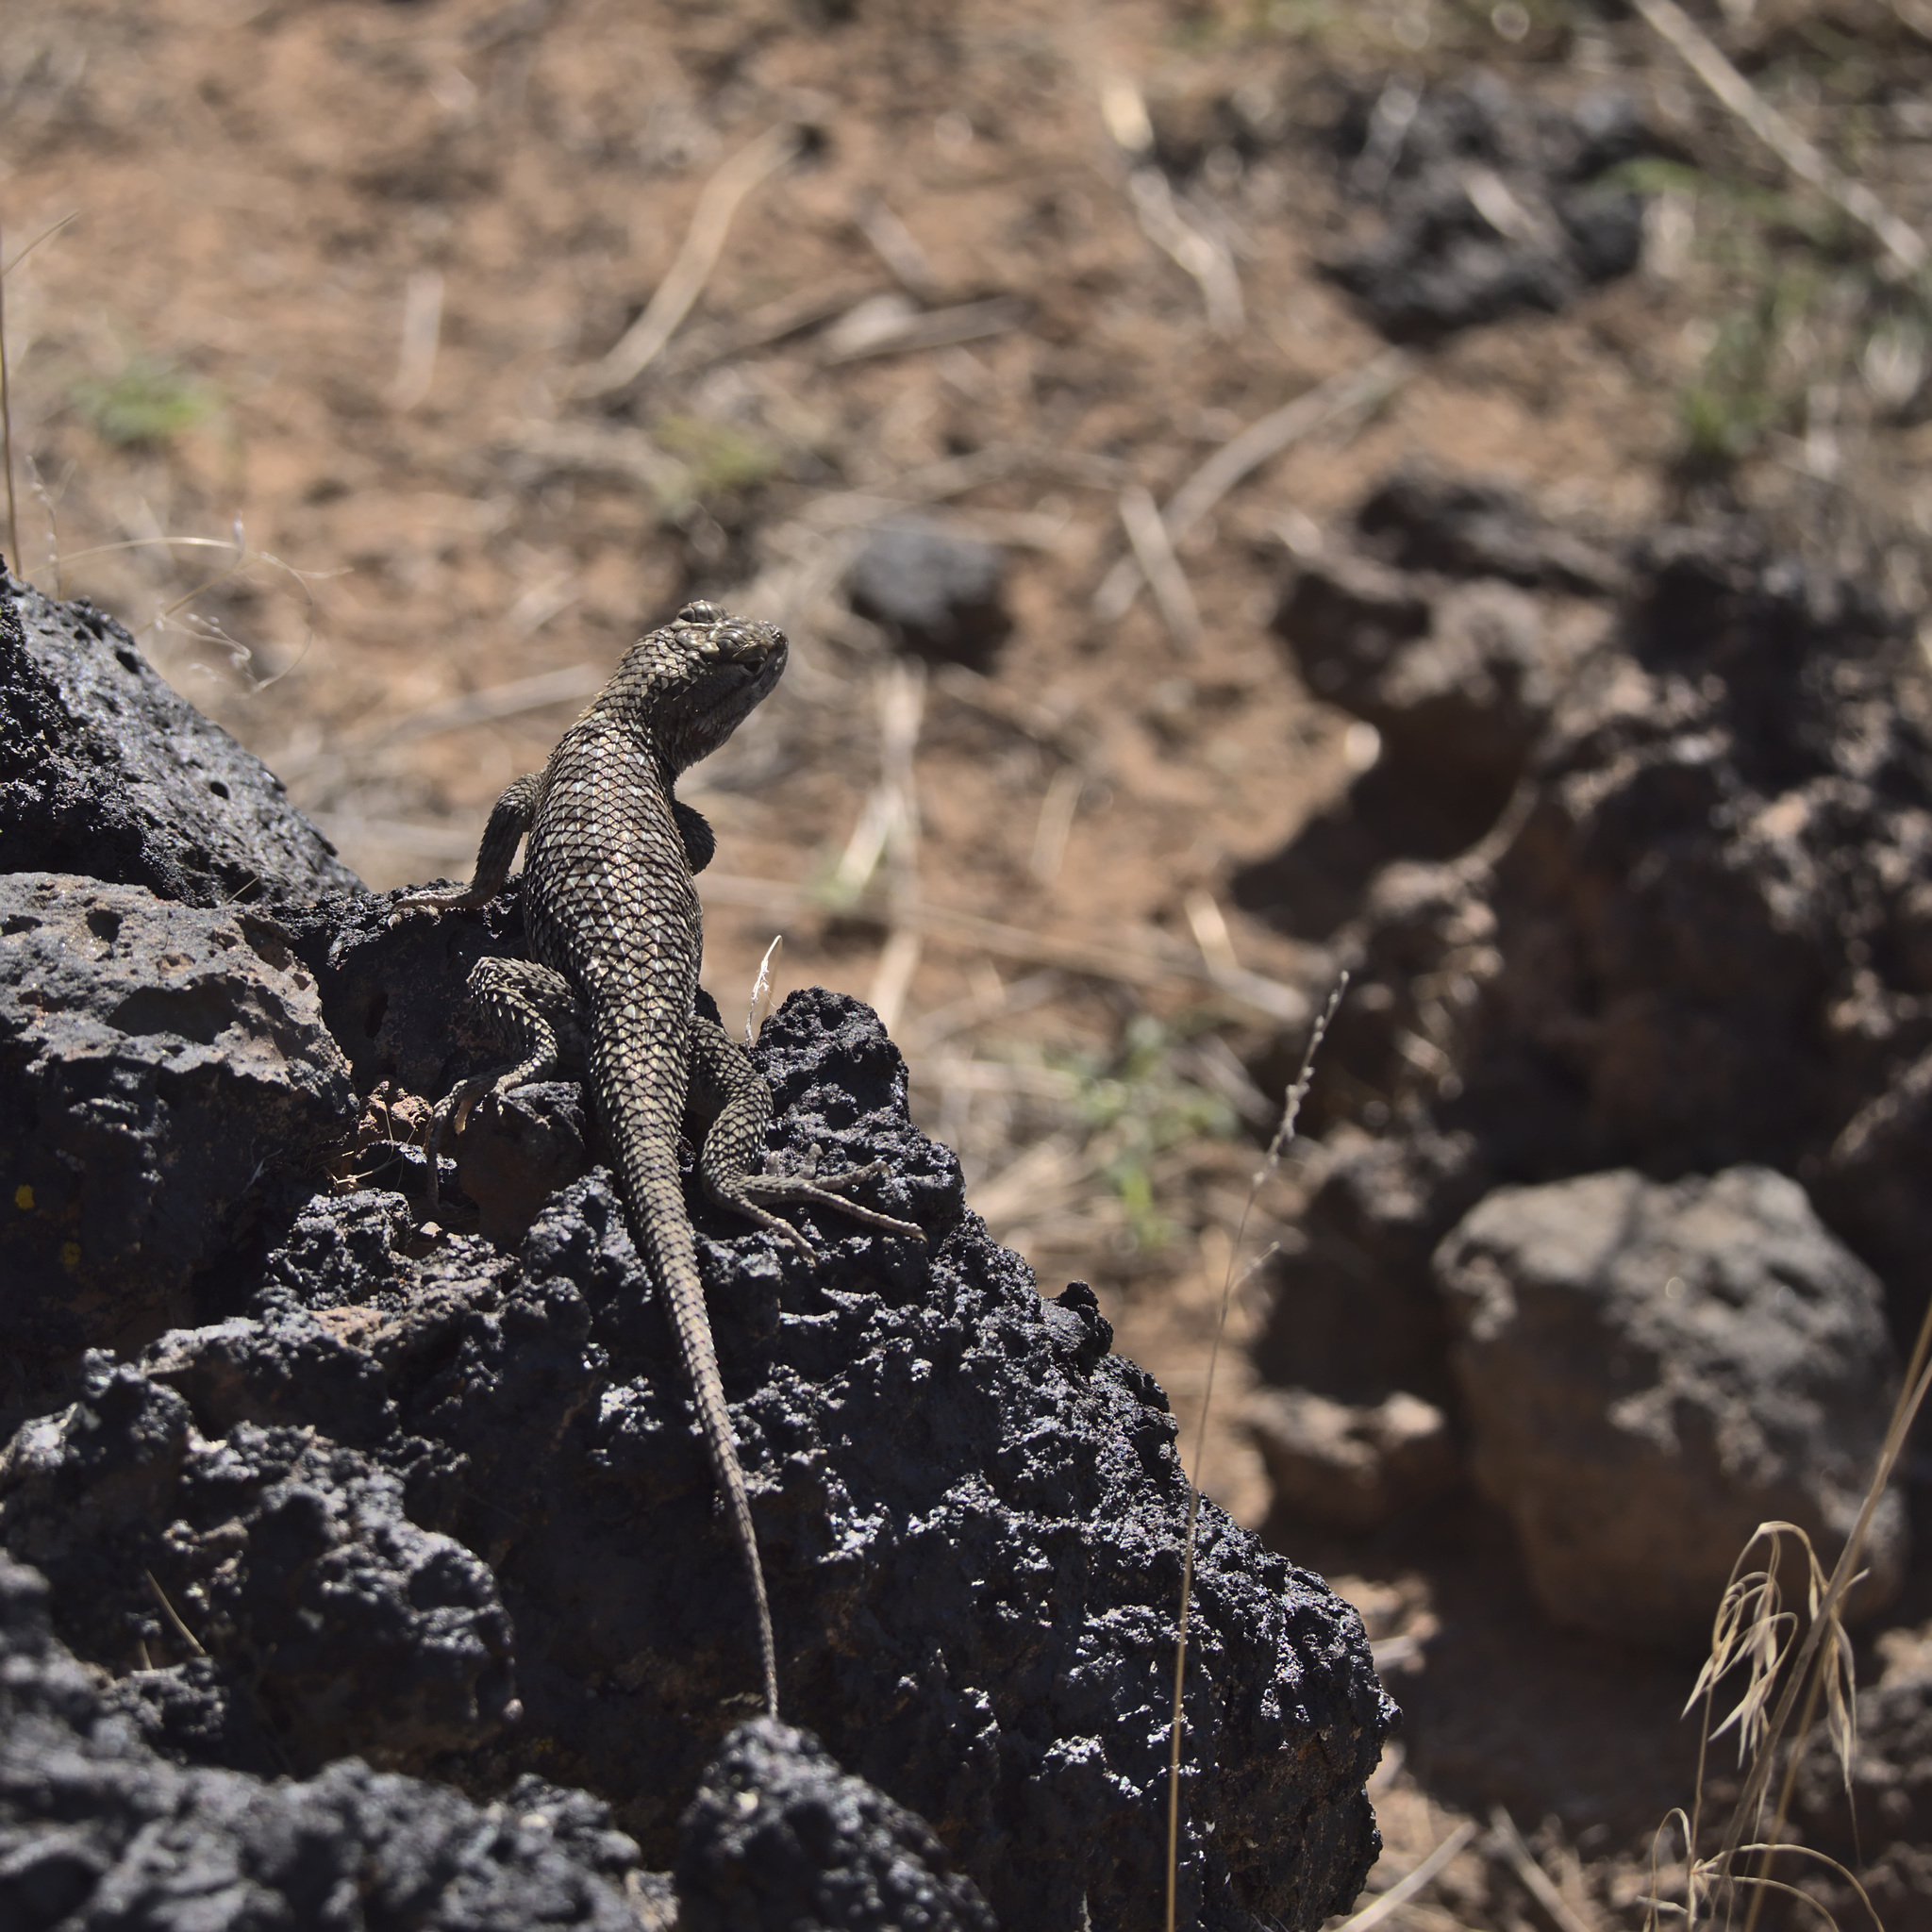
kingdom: Animalia
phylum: Chordata
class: Squamata
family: Phrynosomatidae
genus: Sceloporus
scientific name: Sceloporus uniformis
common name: Yellow-backed spiny lizard
